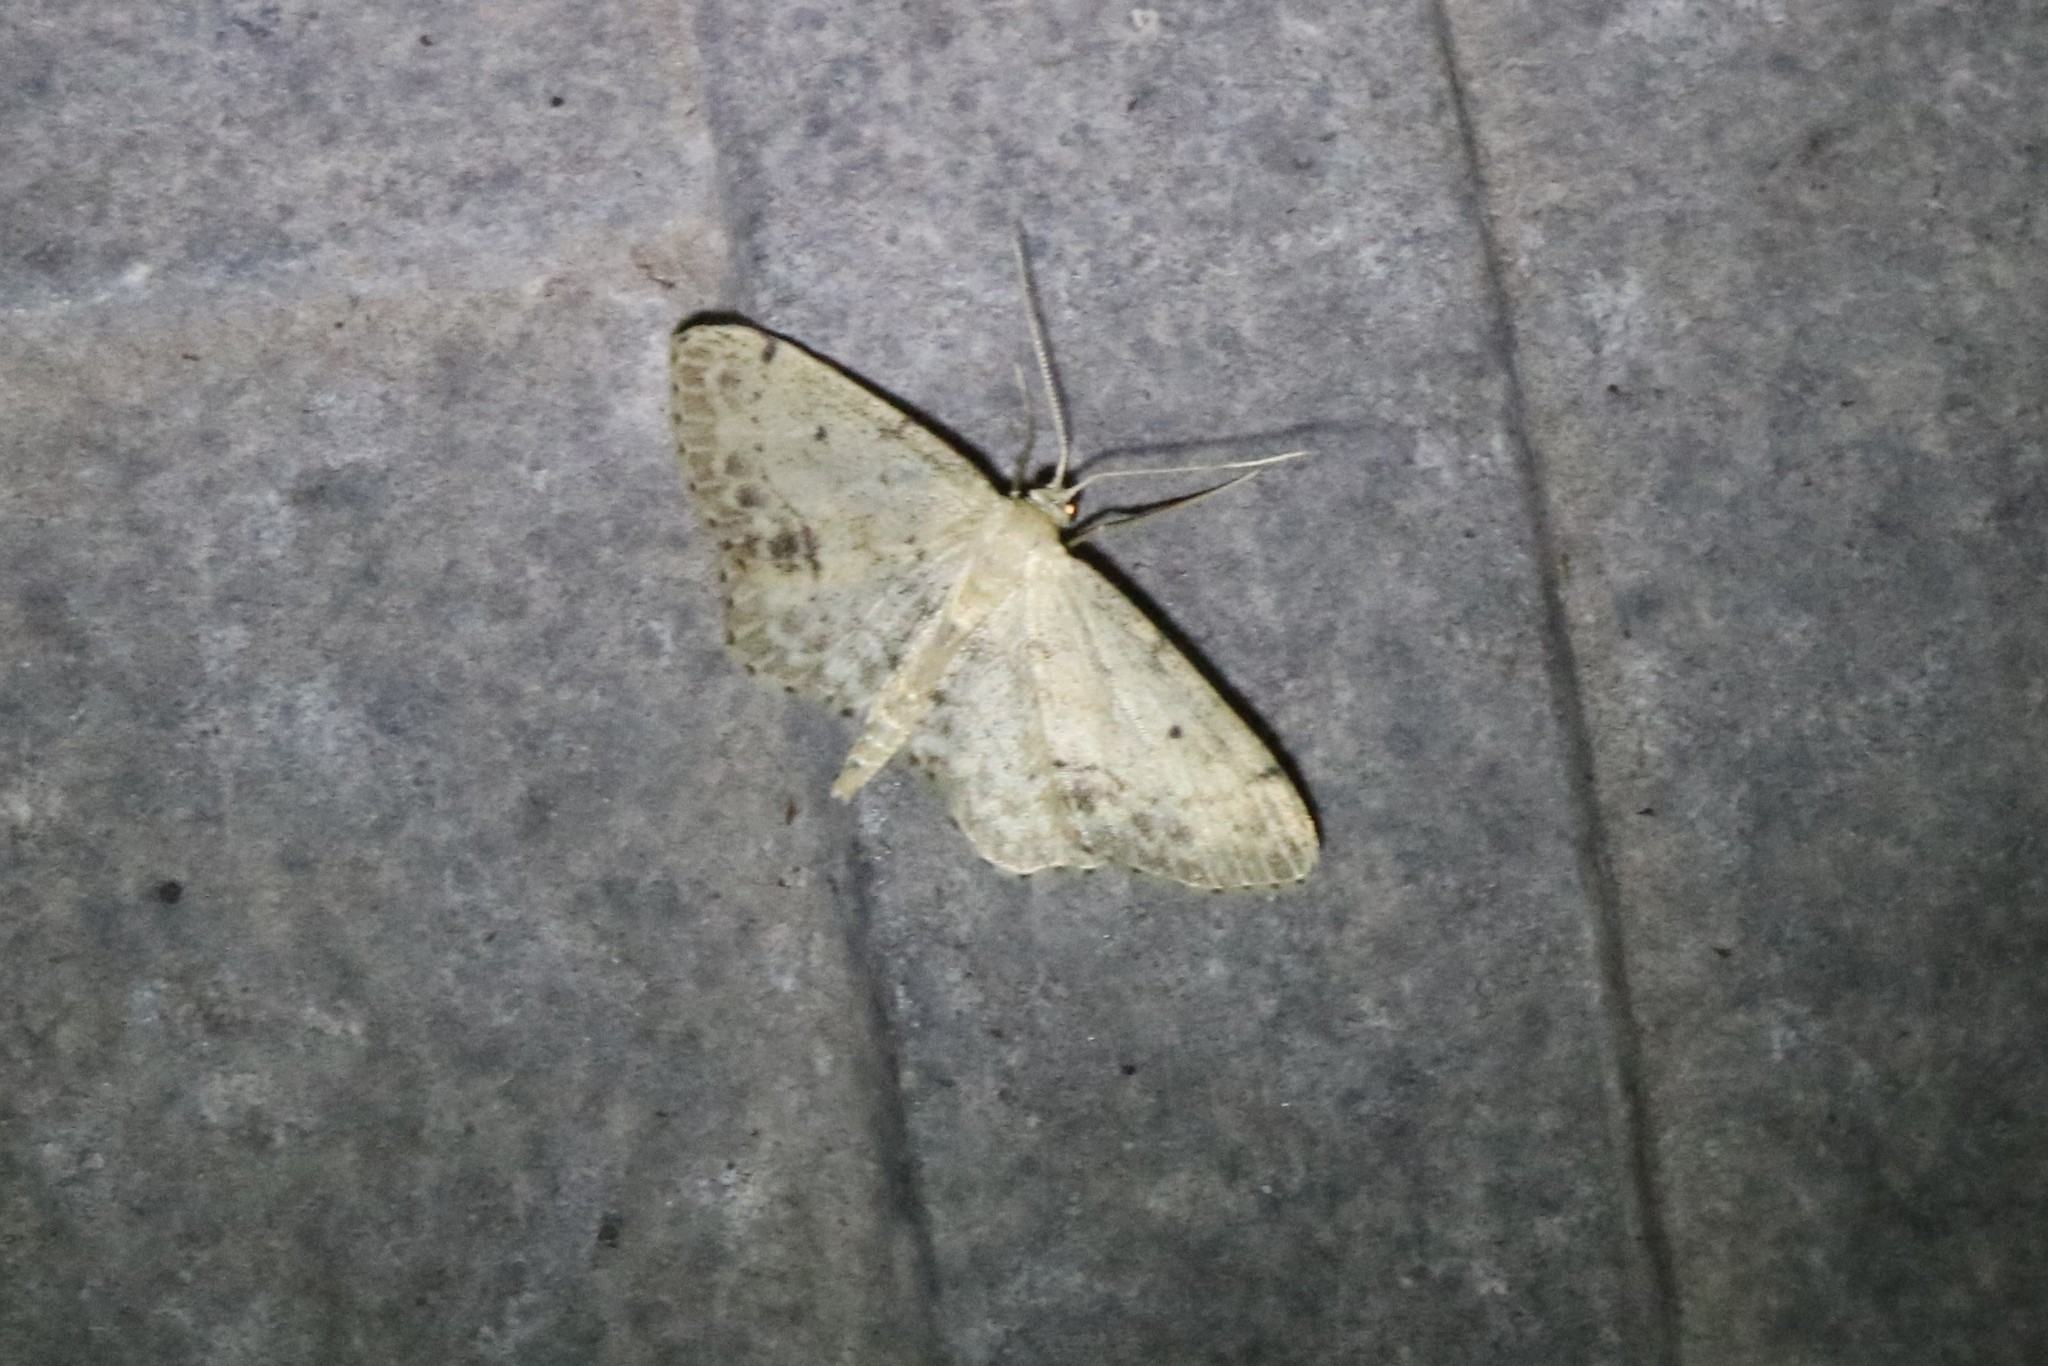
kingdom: Animalia
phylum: Arthropoda
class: Insecta
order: Lepidoptera
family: Geometridae
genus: Idaea
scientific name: Idaea dimidiata
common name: Single-dotted wave
